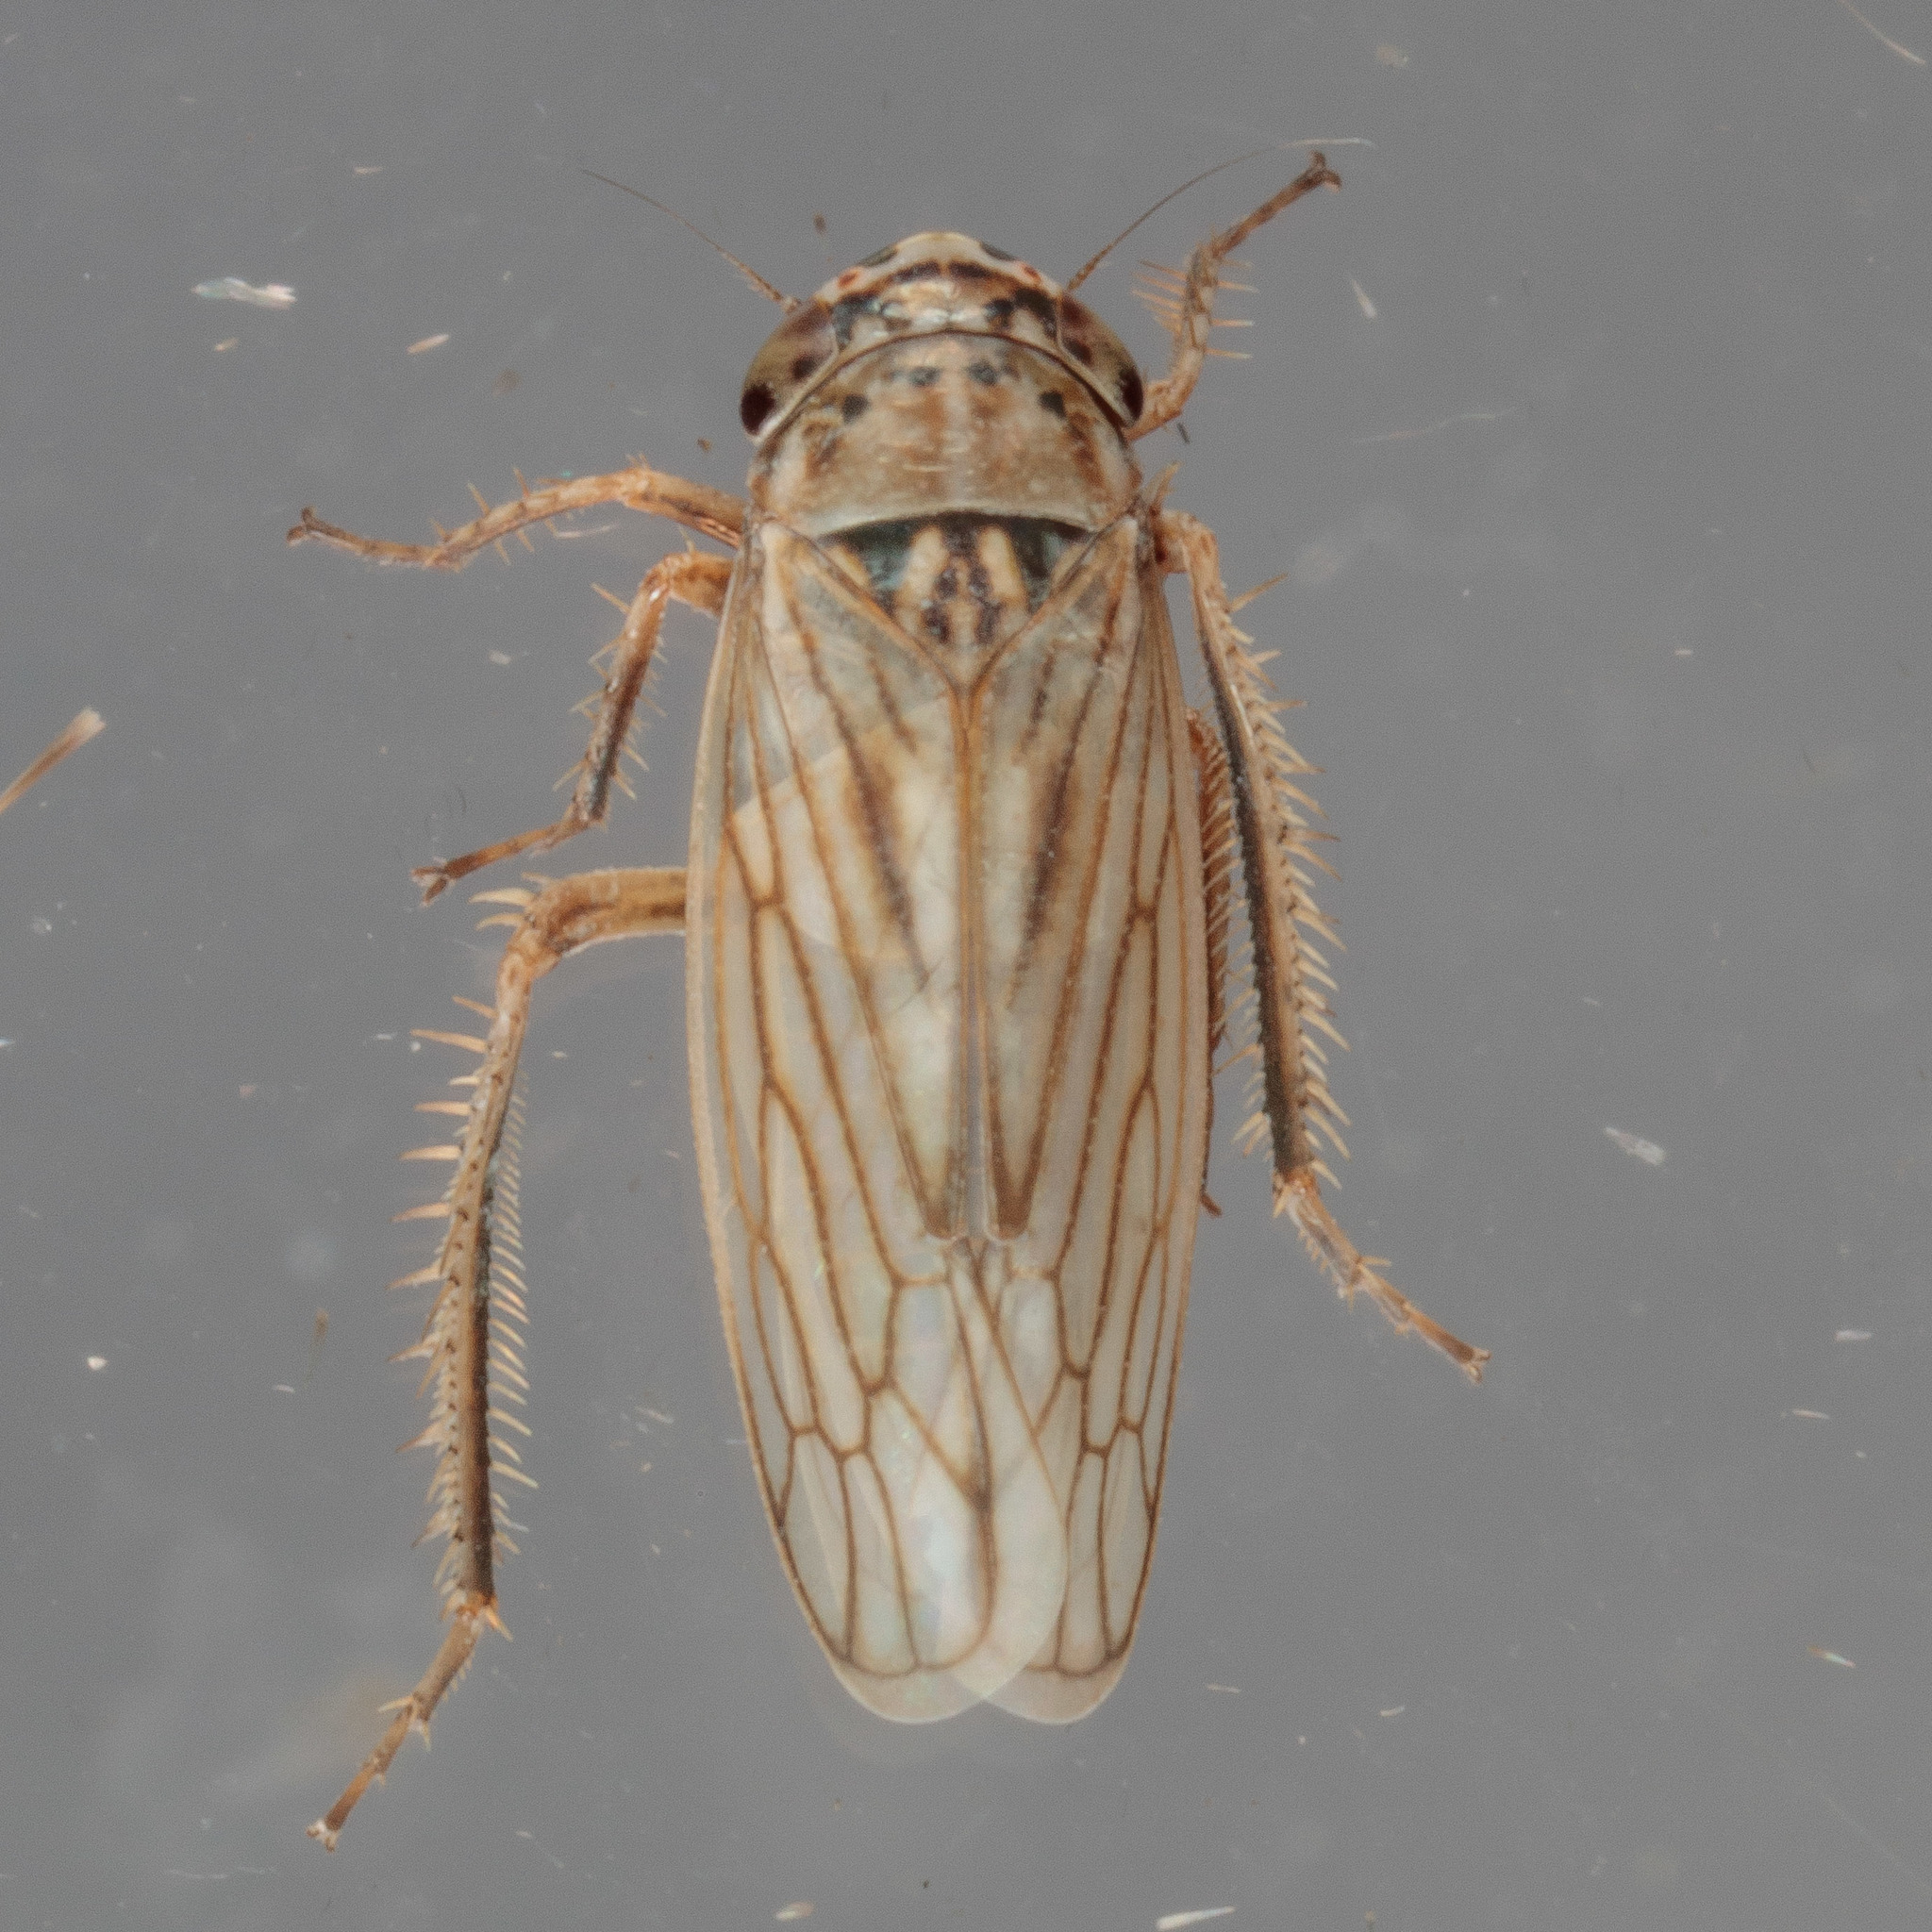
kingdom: Animalia
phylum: Arthropoda
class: Insecta
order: Hemiptera
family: Cicadellidae
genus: Exitianus
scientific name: Exitianus exitiosus
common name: Gray lawn leafhopper
